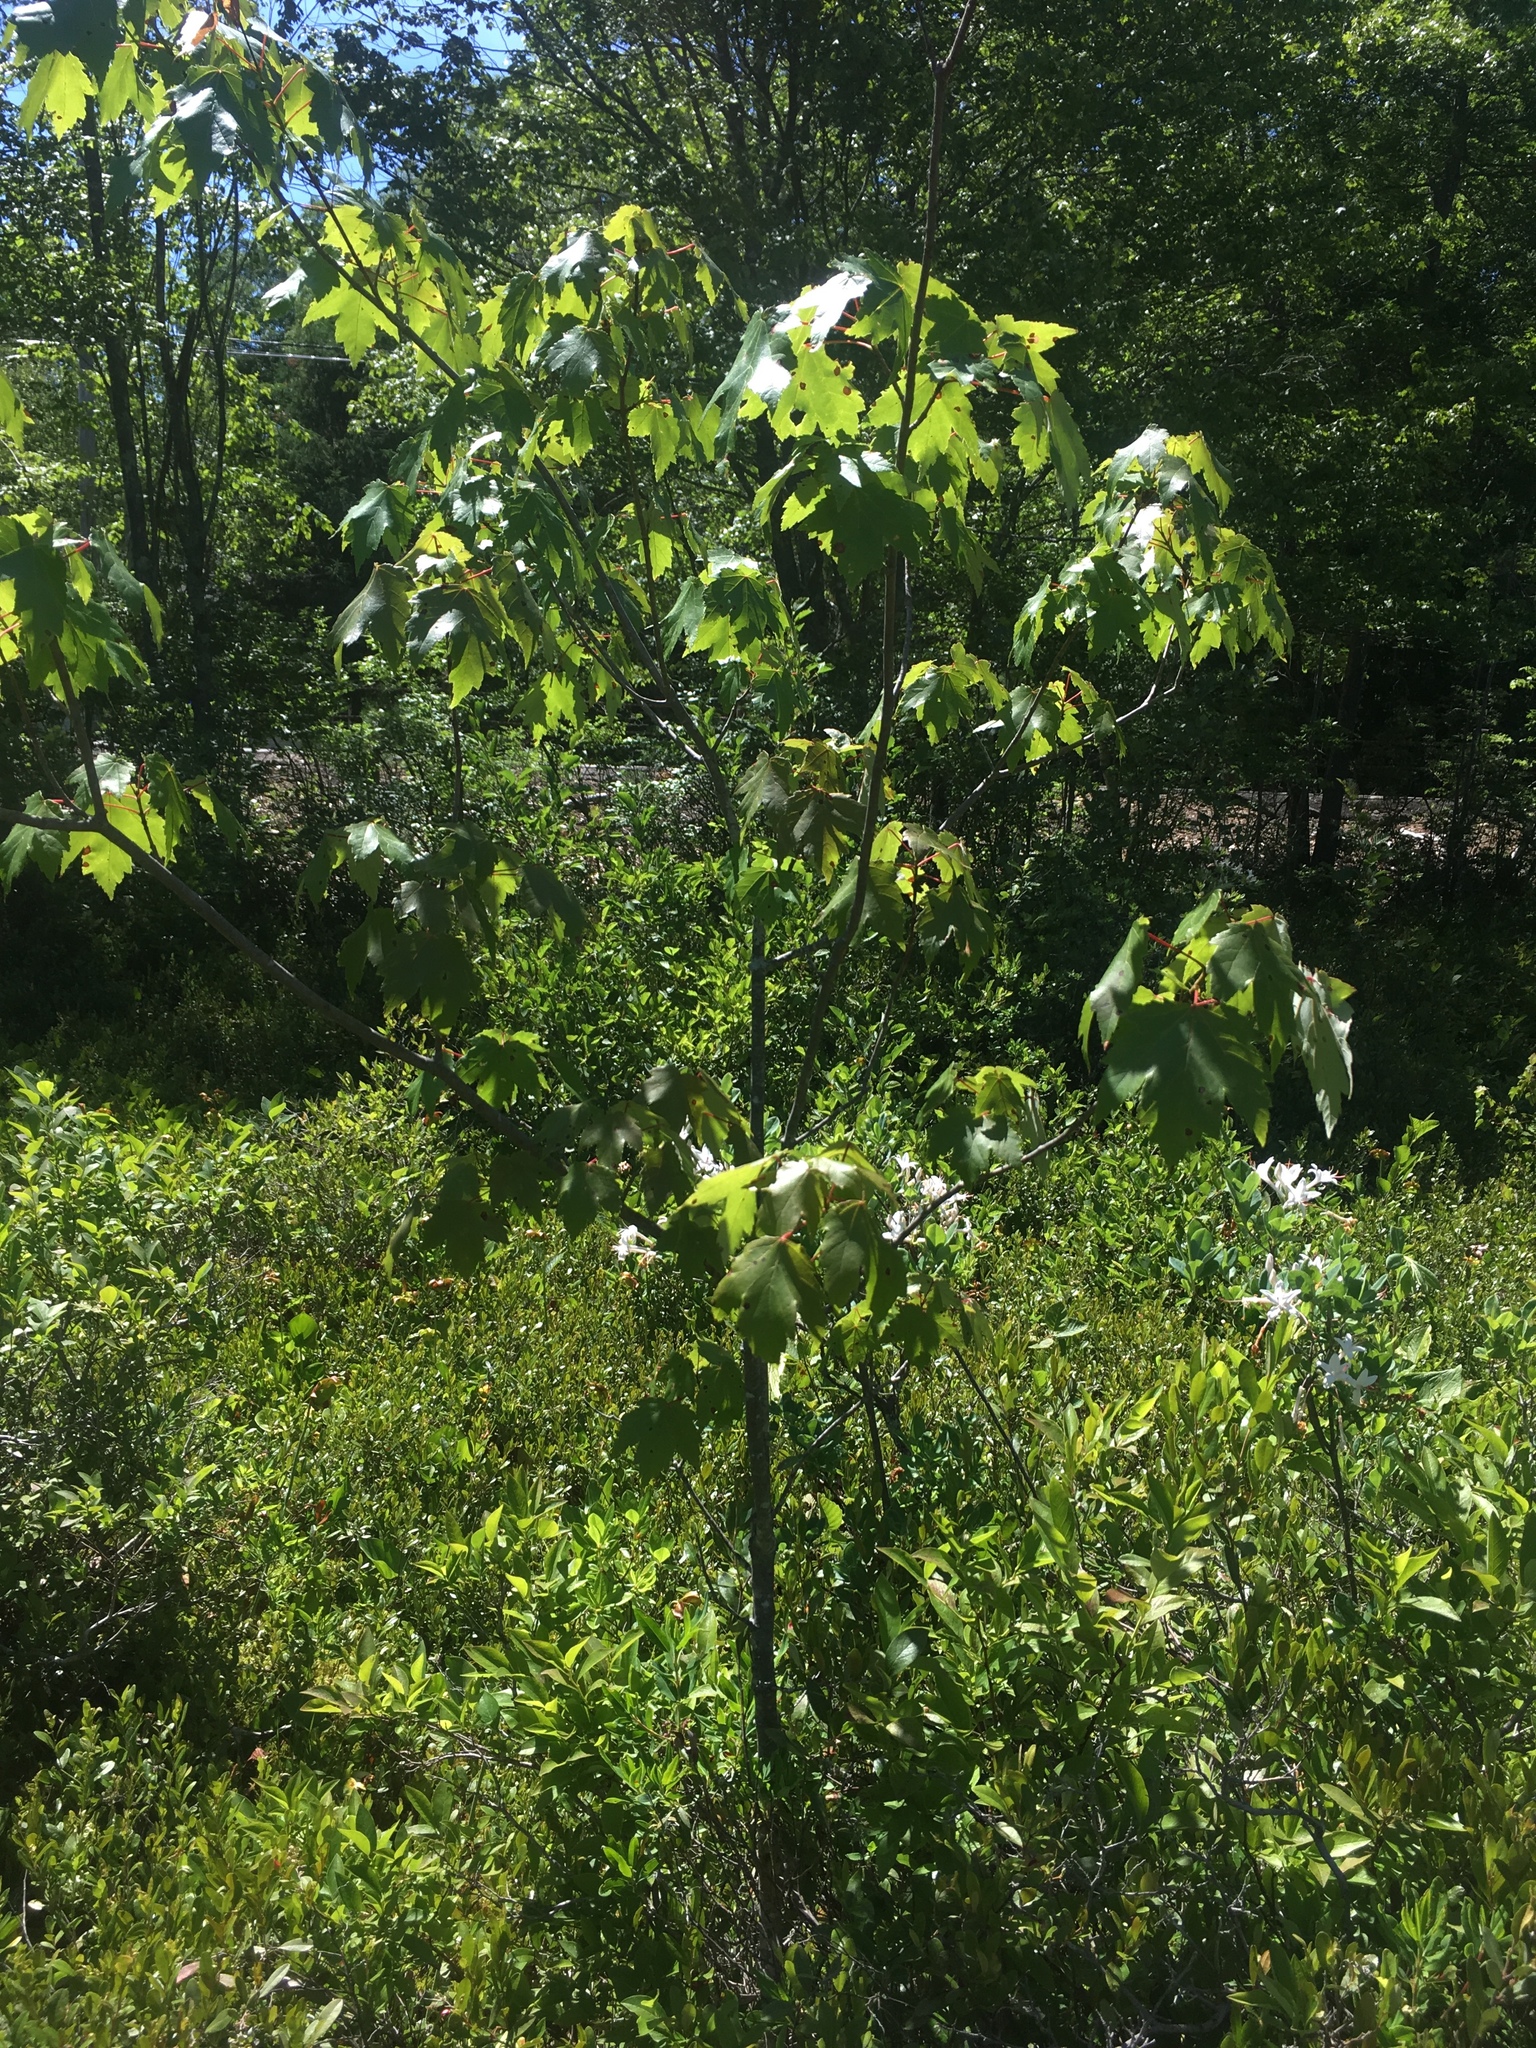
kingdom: Plantae
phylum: Tracheophyta
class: Magnoliopsida
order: Sapindales
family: Sapindaceae
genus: Acer
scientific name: Acer rubrum
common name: Red maple
